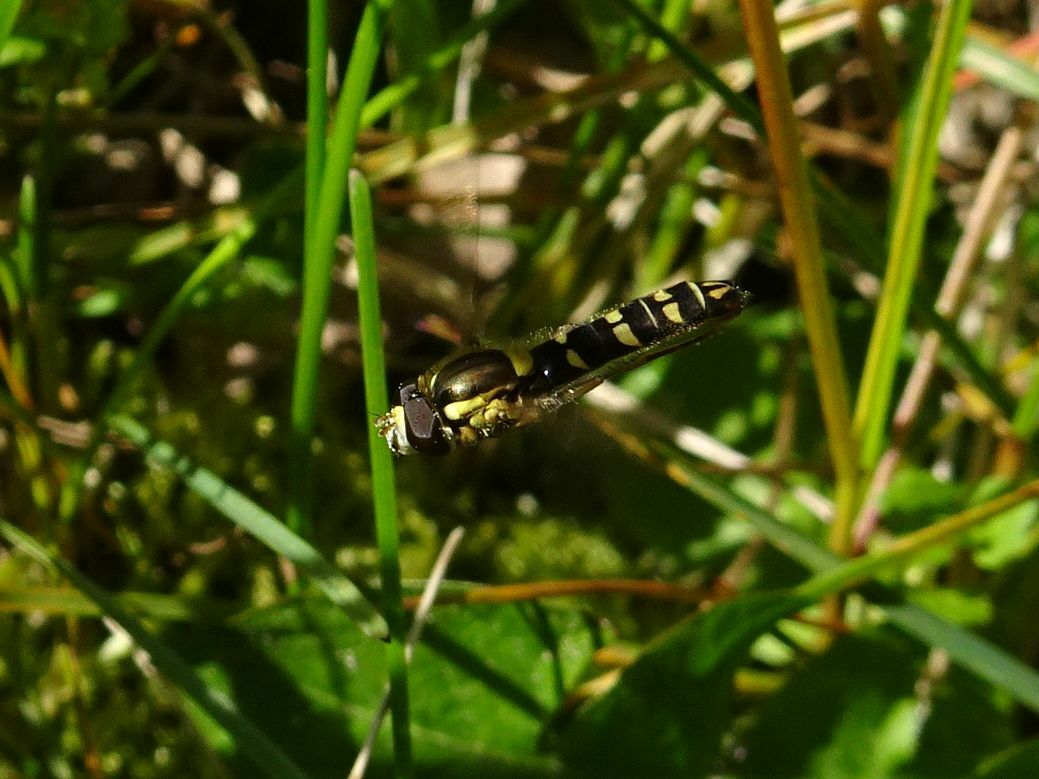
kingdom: Animalia
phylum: Arthropoda
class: Insecta
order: Diptera
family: Syrphidae
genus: Sphaerophoria
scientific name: Sphaerophoria
